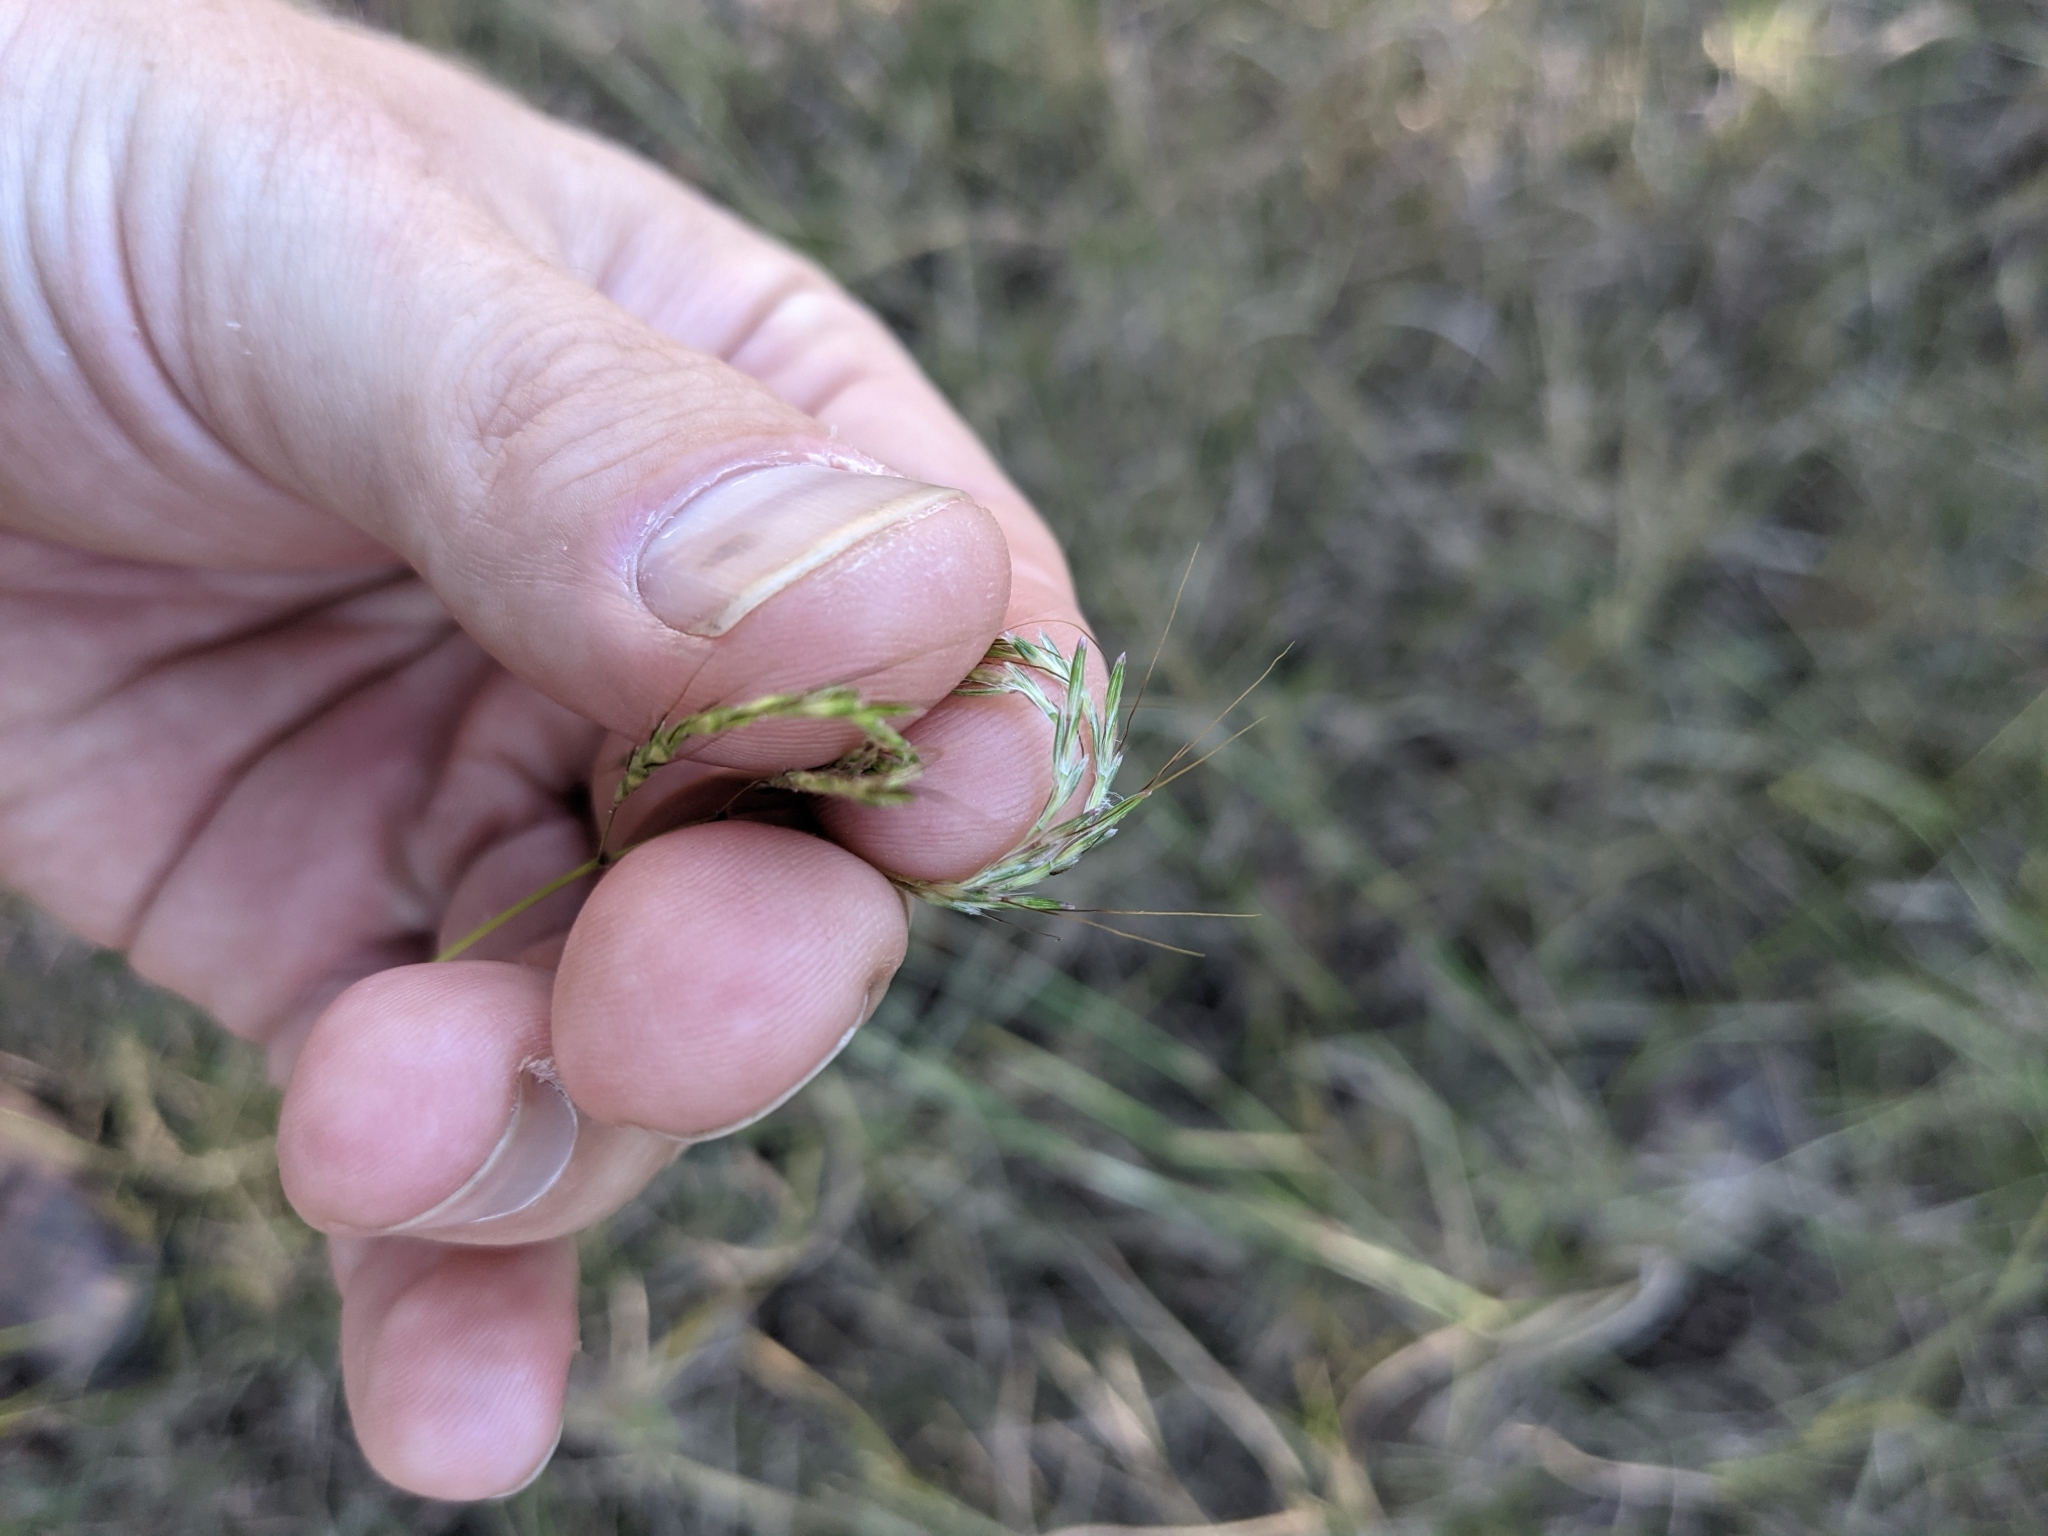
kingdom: Plantae
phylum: Tracheophyta
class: Liliopsida
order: Poales
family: Poaceae
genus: Bothriochloa
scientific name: Bothriochloa ischaemum
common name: Yellow bluestem
